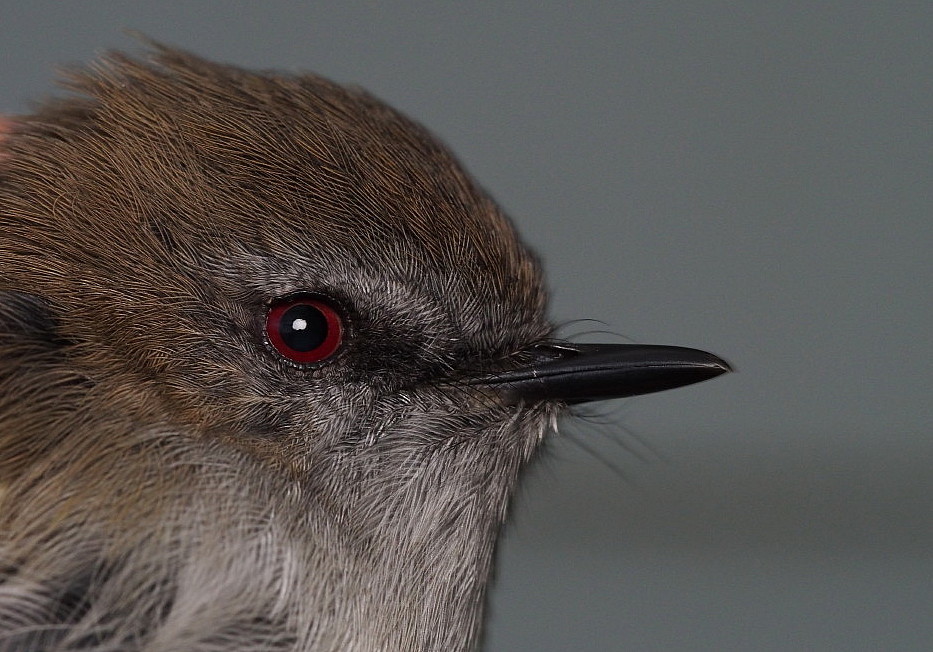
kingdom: Animalia
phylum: Chordata
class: Aves
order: Passeriformes
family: Acanthizidae
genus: Gerygone
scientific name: Gerygone igata
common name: Grey gerygone
